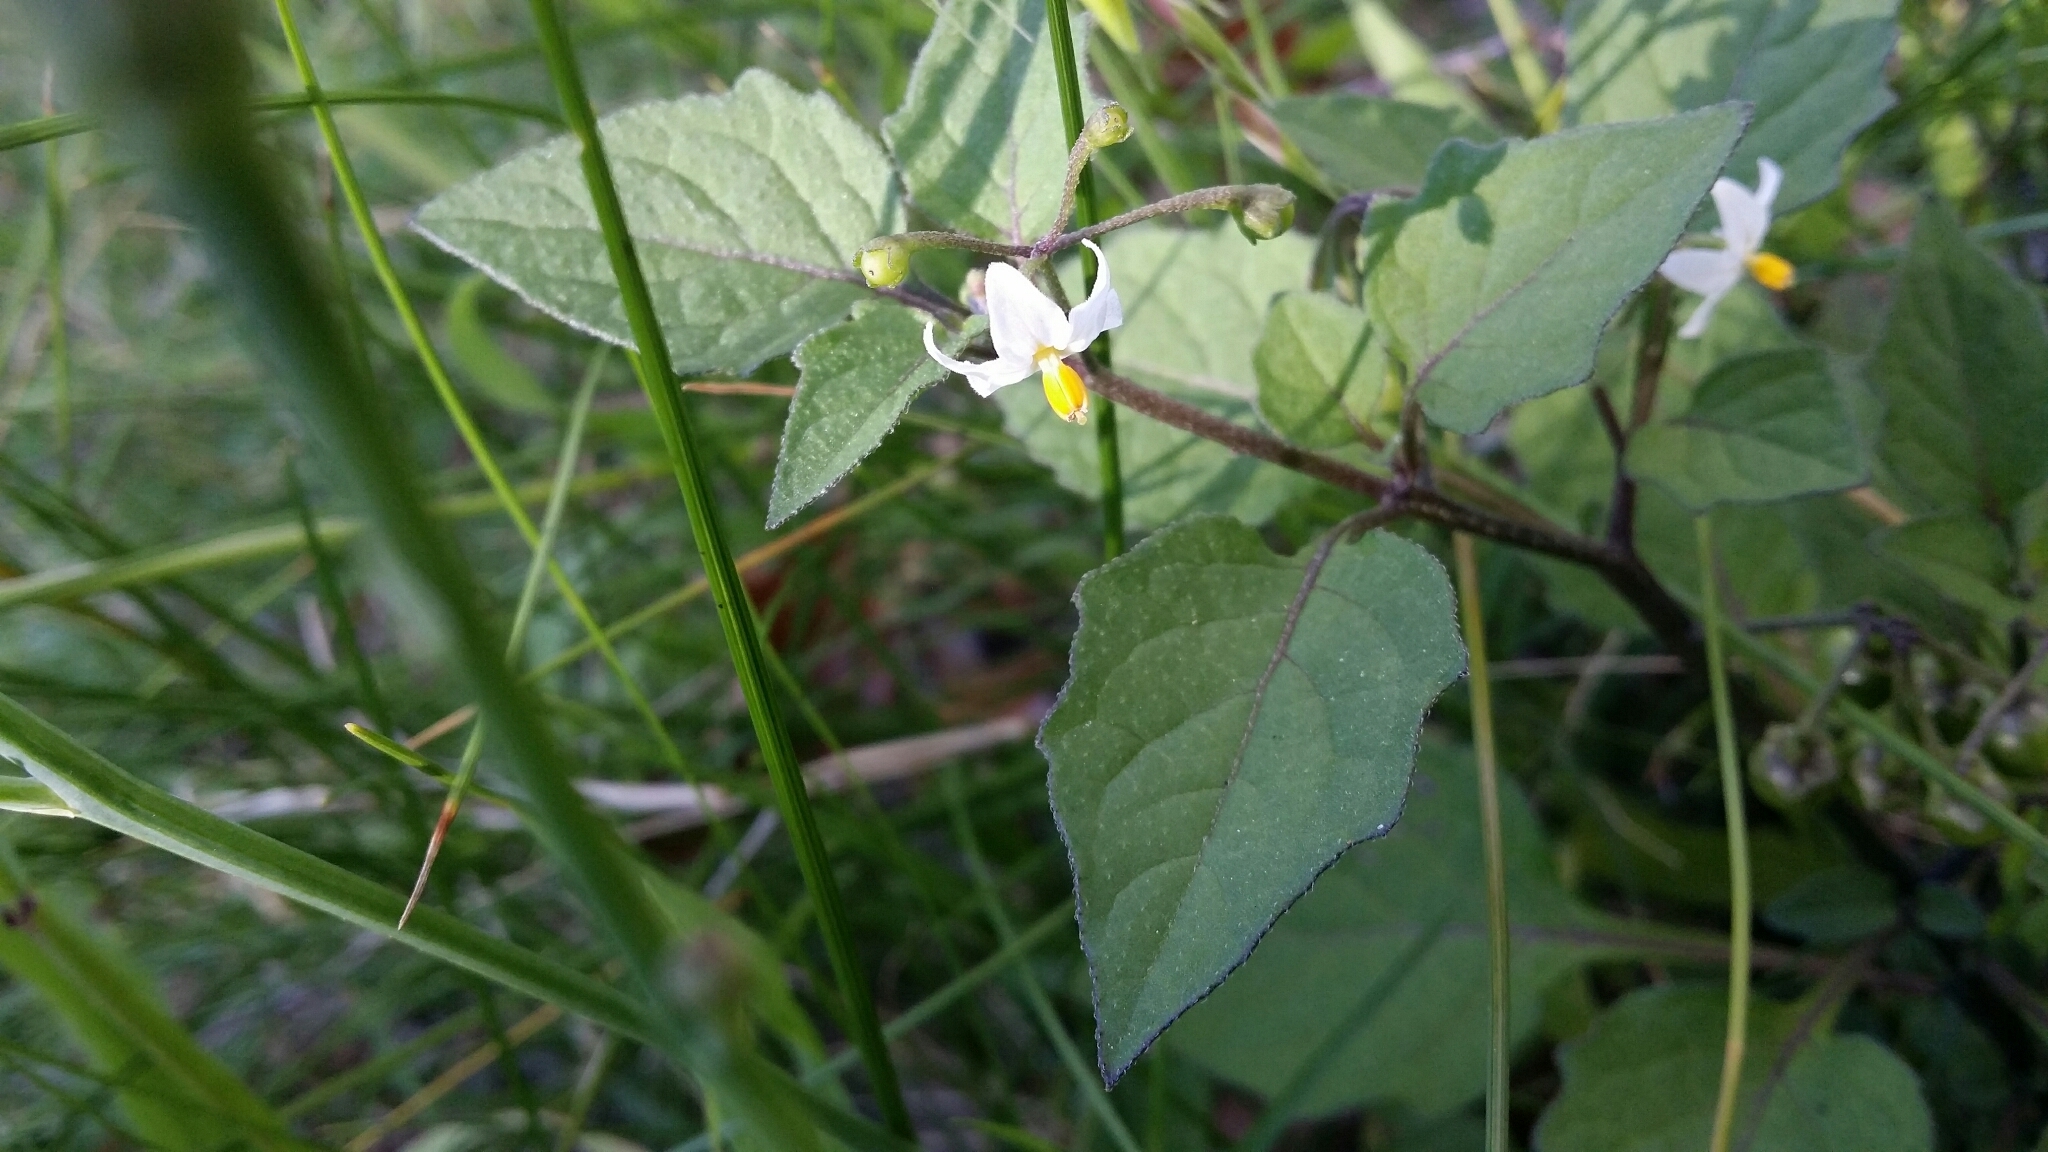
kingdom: Plantae
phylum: Tracheophyta
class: Magnoliopsida
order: Solanales
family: Solanaceae
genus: Solanum
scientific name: Solanum nigrum
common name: Black nightshade
